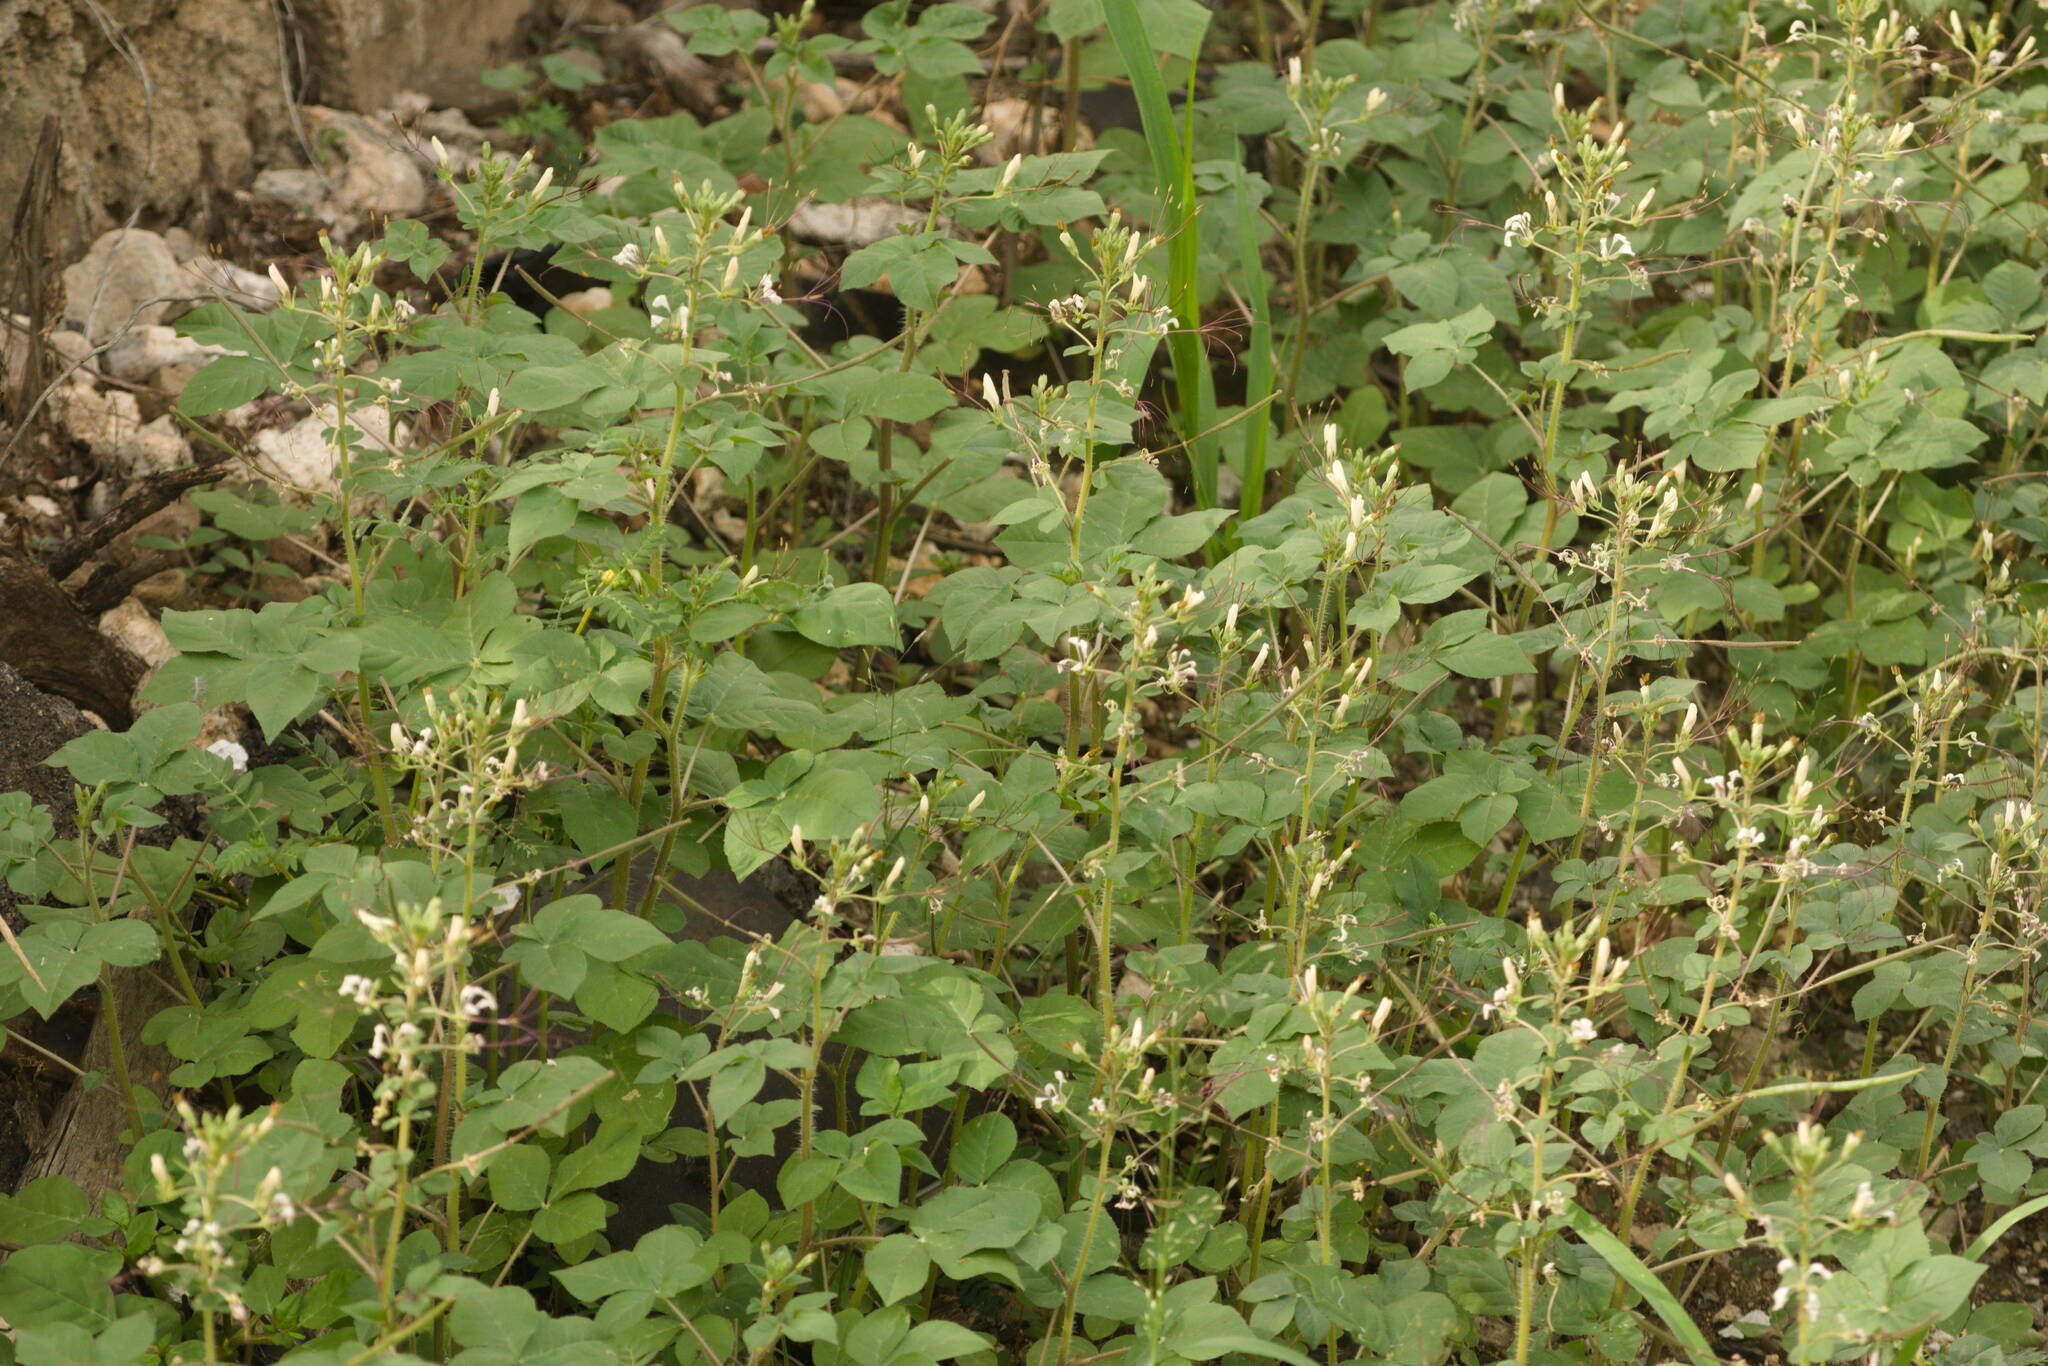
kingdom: Plantae
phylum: Tracheophyta
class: Magnoliopsida
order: Brassicales
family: Cleomaceae
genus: Gynandropsis
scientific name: Gynandropsis gynandra
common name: Spiderwisp
